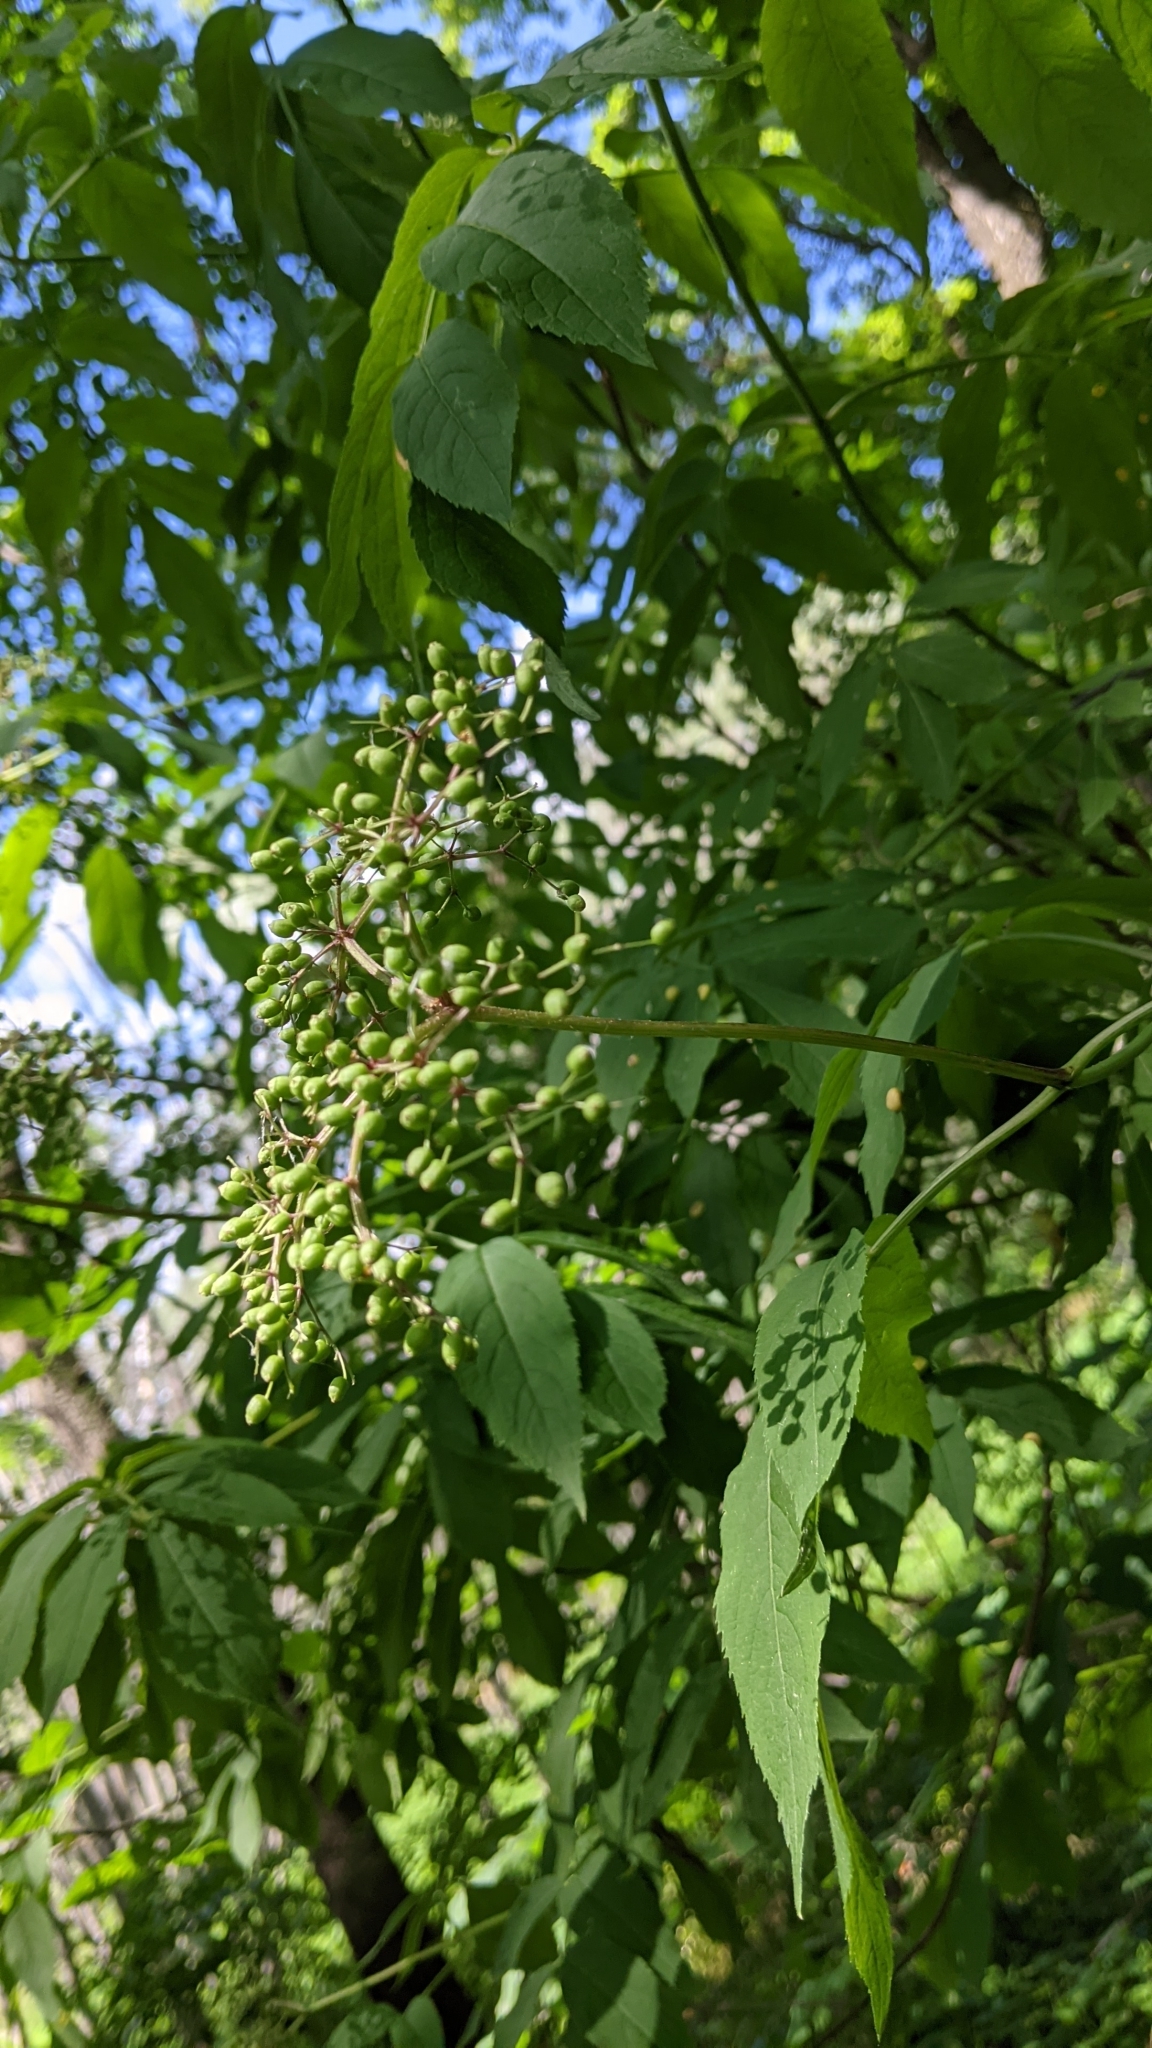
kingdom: Plantae
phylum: Tracheophyta
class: Magnoliopsida
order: Dipsacales
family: Viburnaceae
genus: Sambucus
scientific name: Sambucus canadensis
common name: American elder
